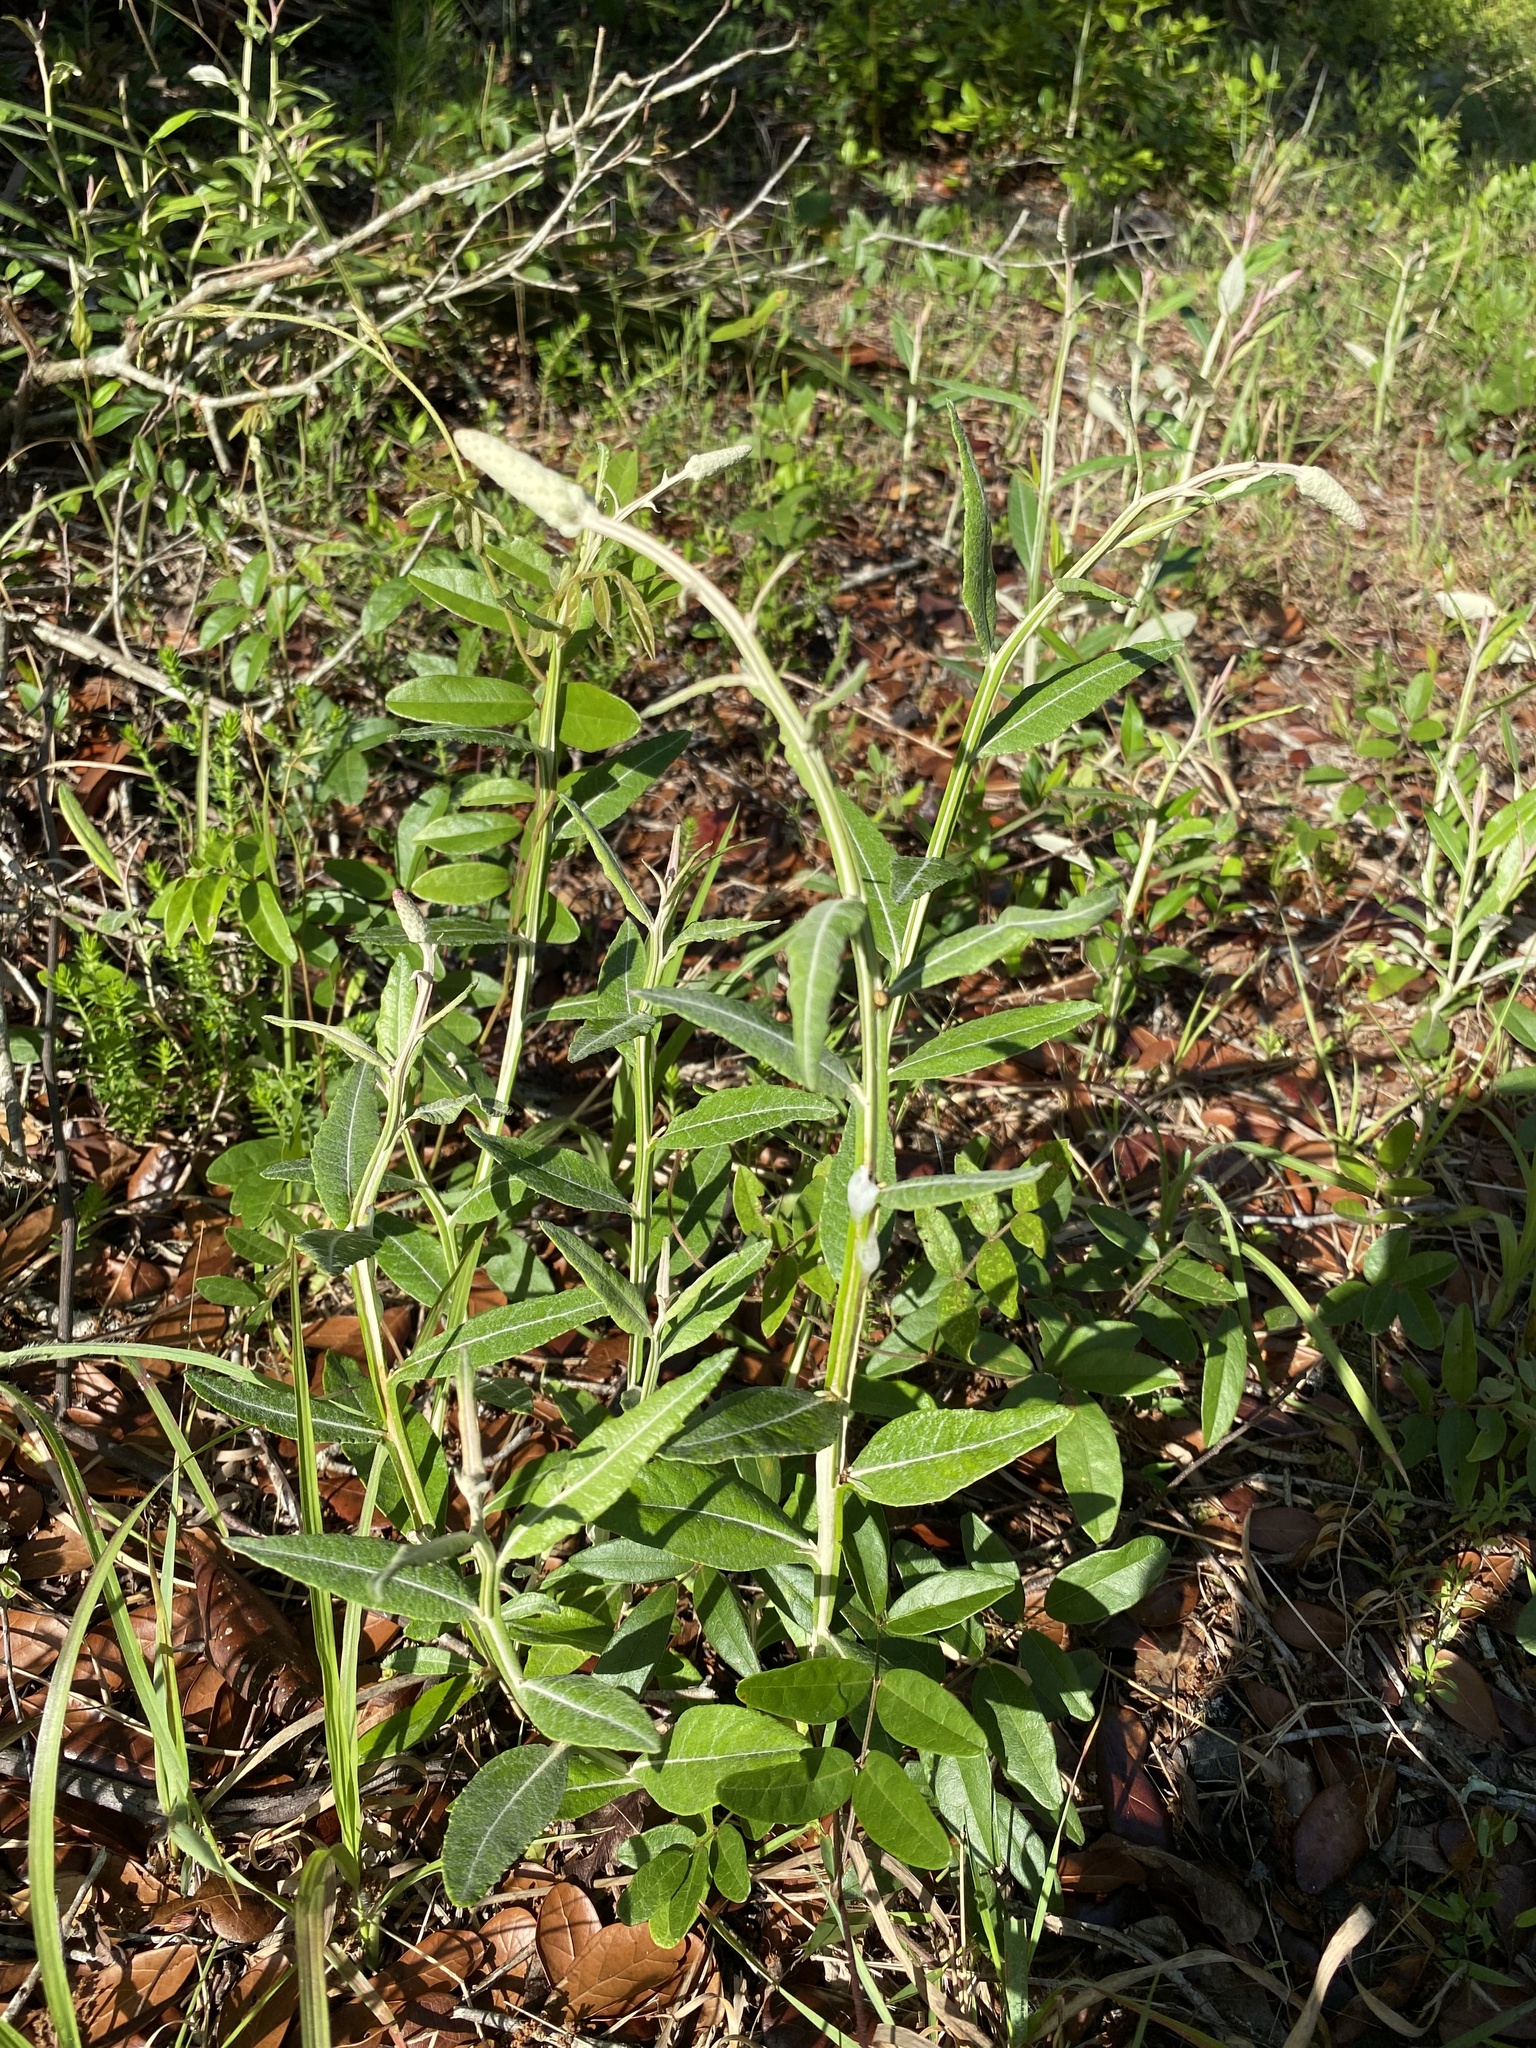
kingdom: Plantae
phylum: Tracheophyta
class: Magnoliopsida
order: Asterales
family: Asteraceae
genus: Pterocaulon
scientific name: Pterocaulon pycnostachyum
